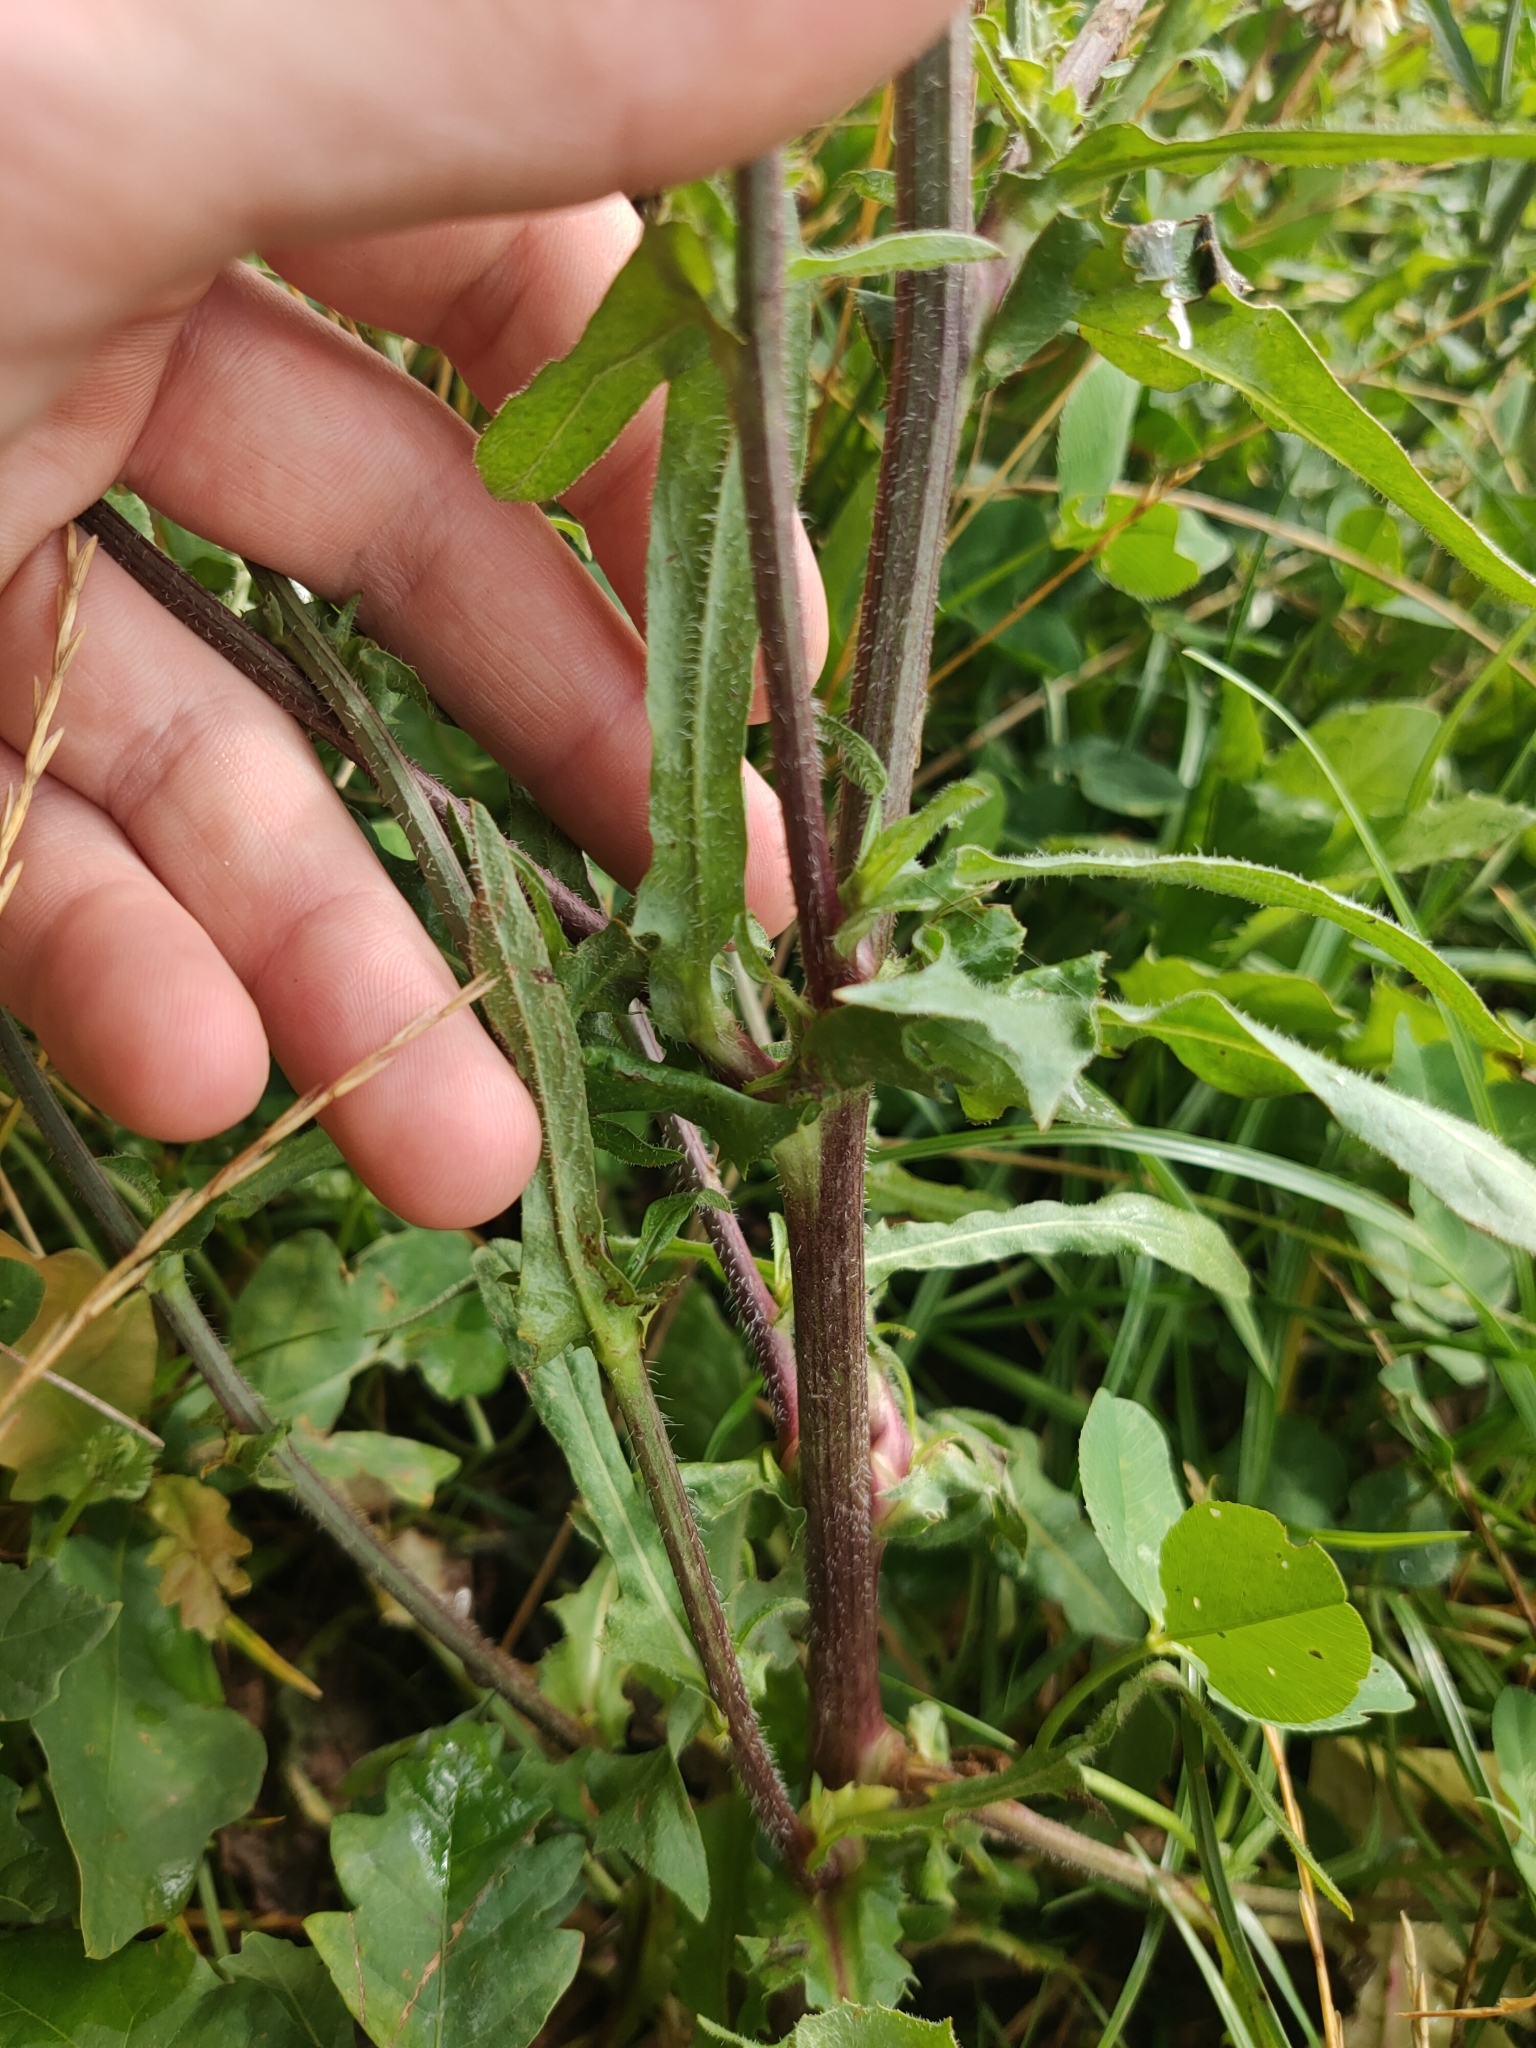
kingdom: Plantae
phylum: Tracheophyta
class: Magnoliopsida
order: Asterales
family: Asteraceae
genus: Cichorium
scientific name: Cichorium intybus
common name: Chicory
